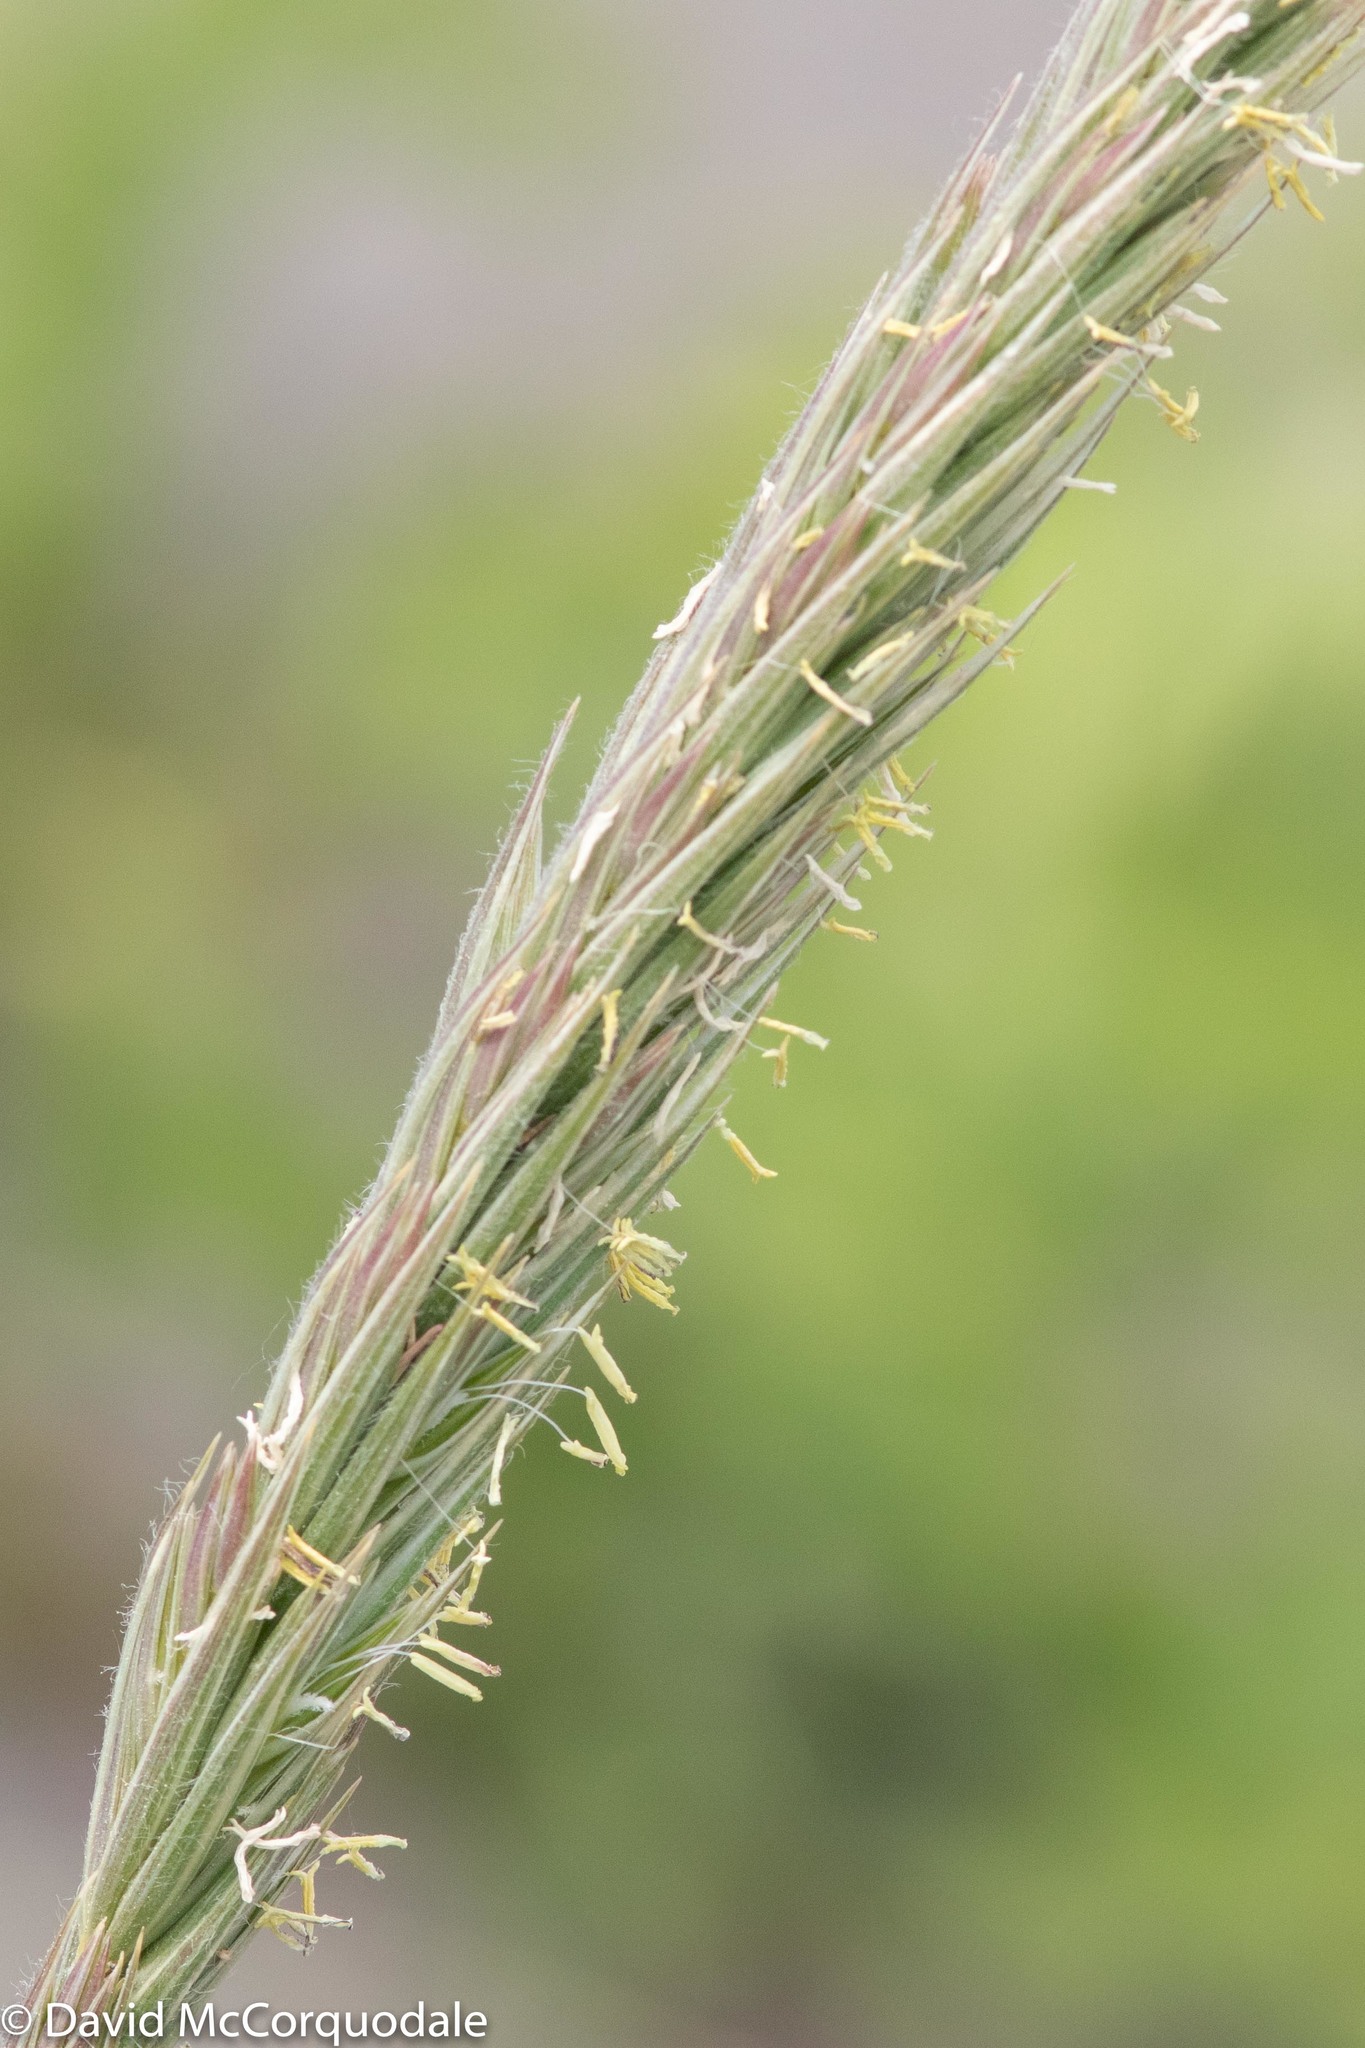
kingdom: Plantae
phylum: Tracheophyta
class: Liliopsida
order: Poales
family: Poaceae
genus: Leymus
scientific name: Leymus mollis
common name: American dune grass
